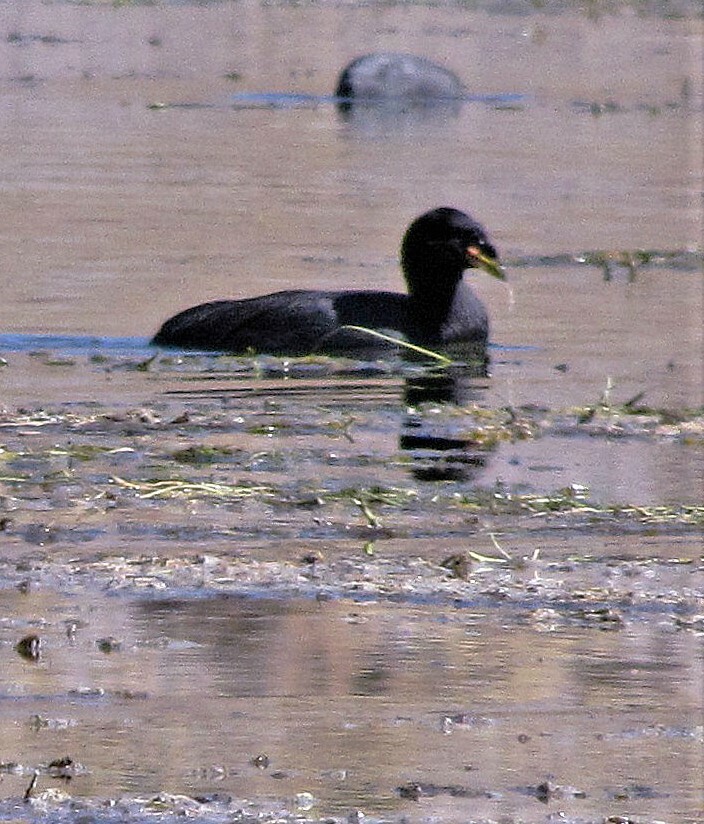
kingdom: Animalia
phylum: Chordata
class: Aves
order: Gruiformes
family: Rallidae
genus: Fulica
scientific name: Fulica cornuta
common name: Horned coot
